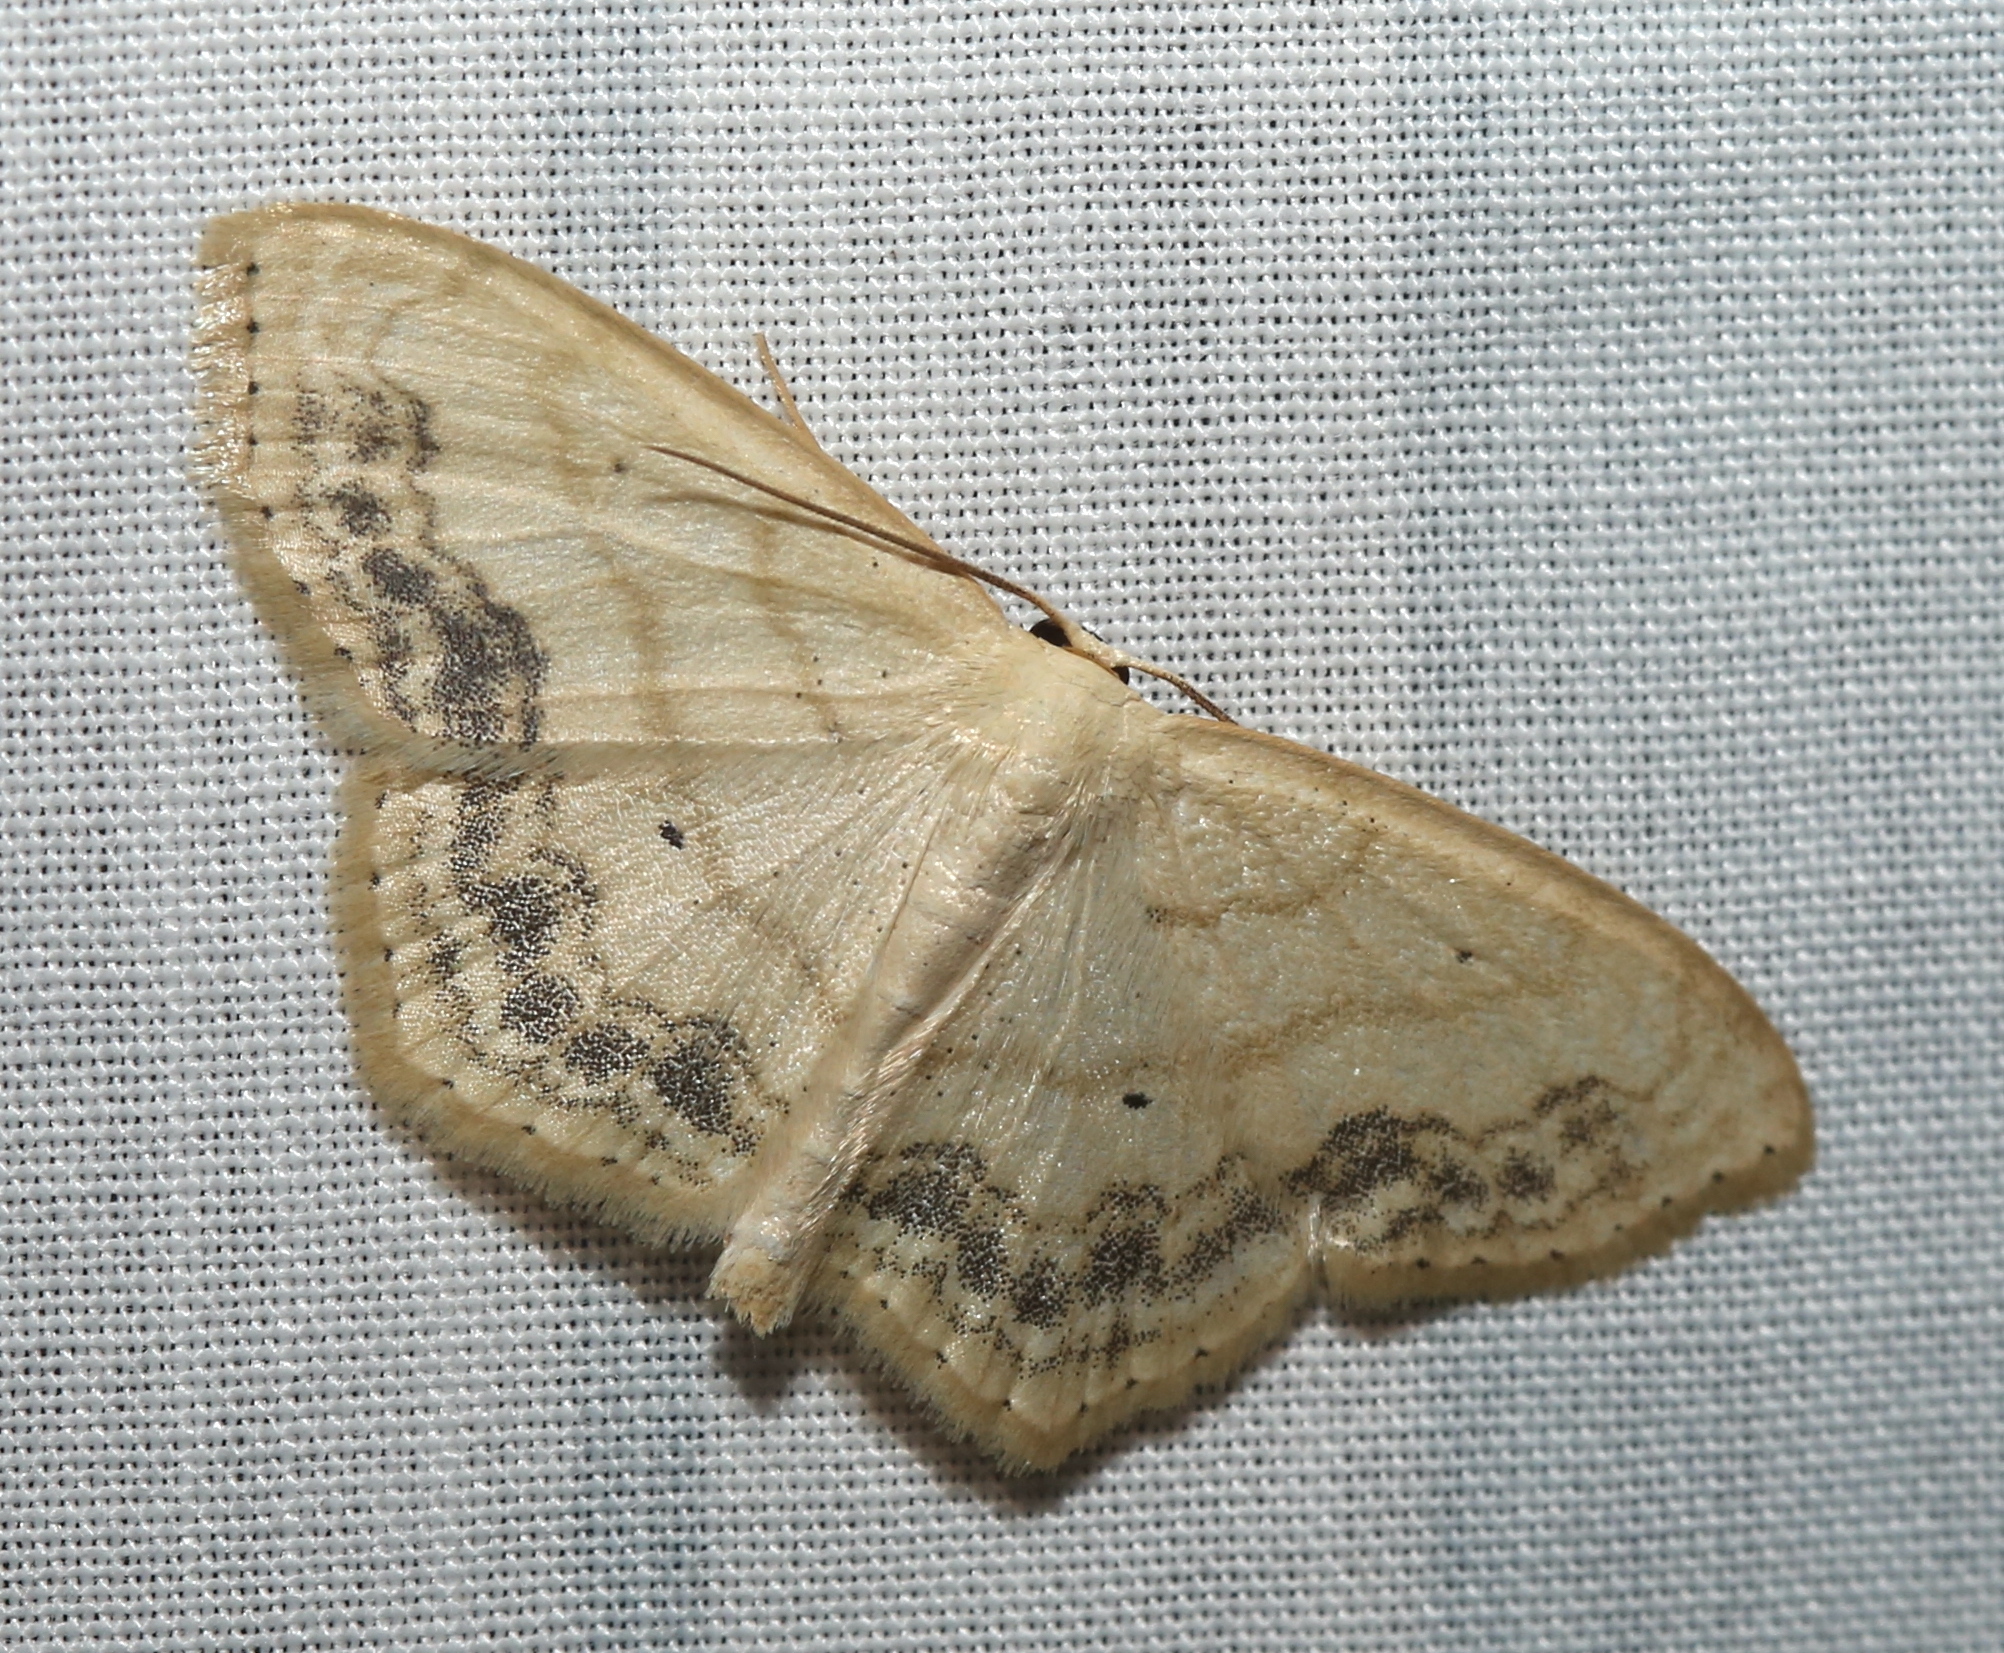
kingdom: Animalia
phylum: Arthropoda
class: Insecta
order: Lepidoptera
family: Geometridae
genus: Scopula
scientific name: Scopula limboundata
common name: Large lace border
